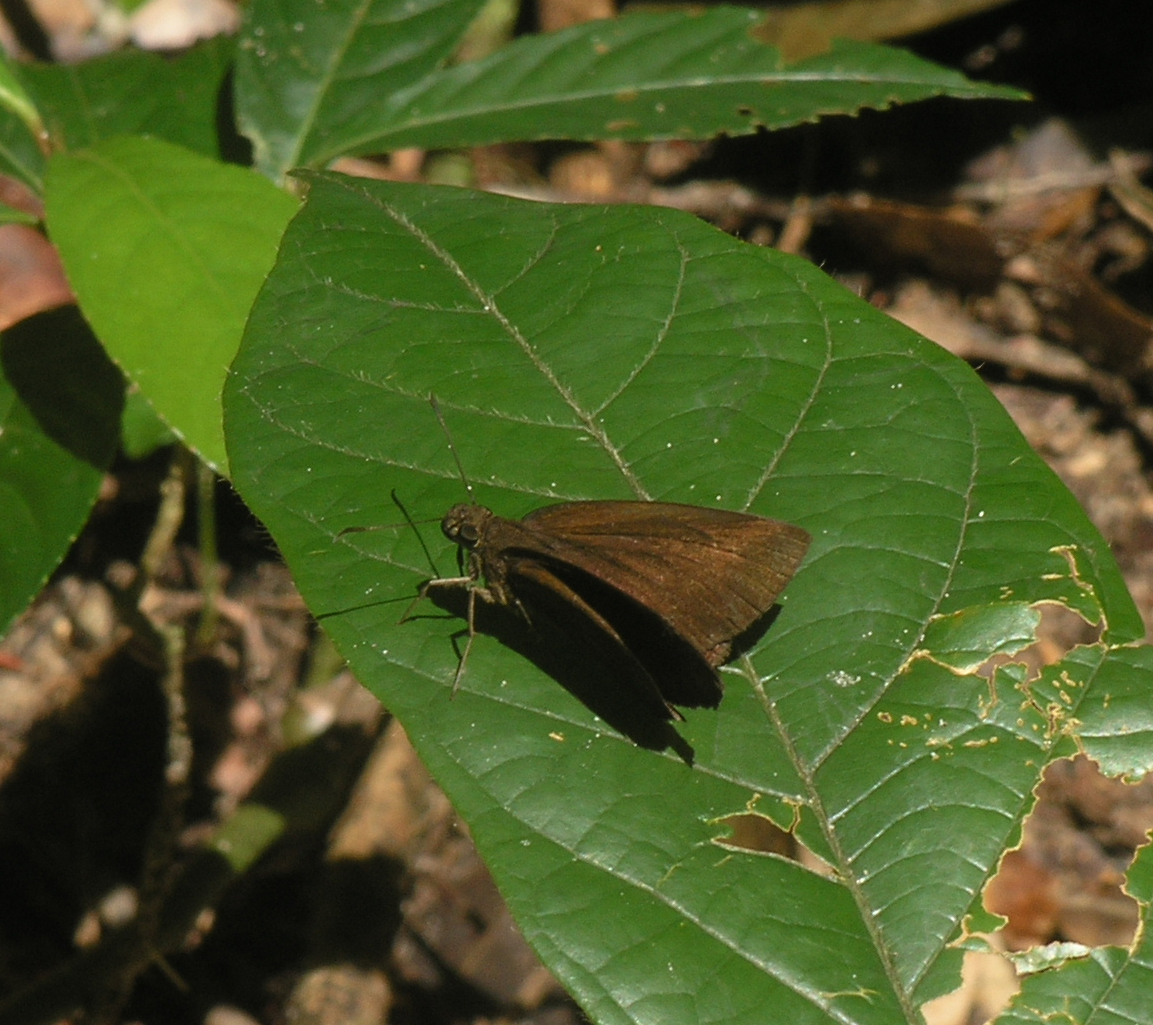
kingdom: Animalia
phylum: Arthropoda
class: Insecta
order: Lepidoptera
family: Hesperiidae
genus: Ancistroides
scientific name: Ancistroides nigrita
